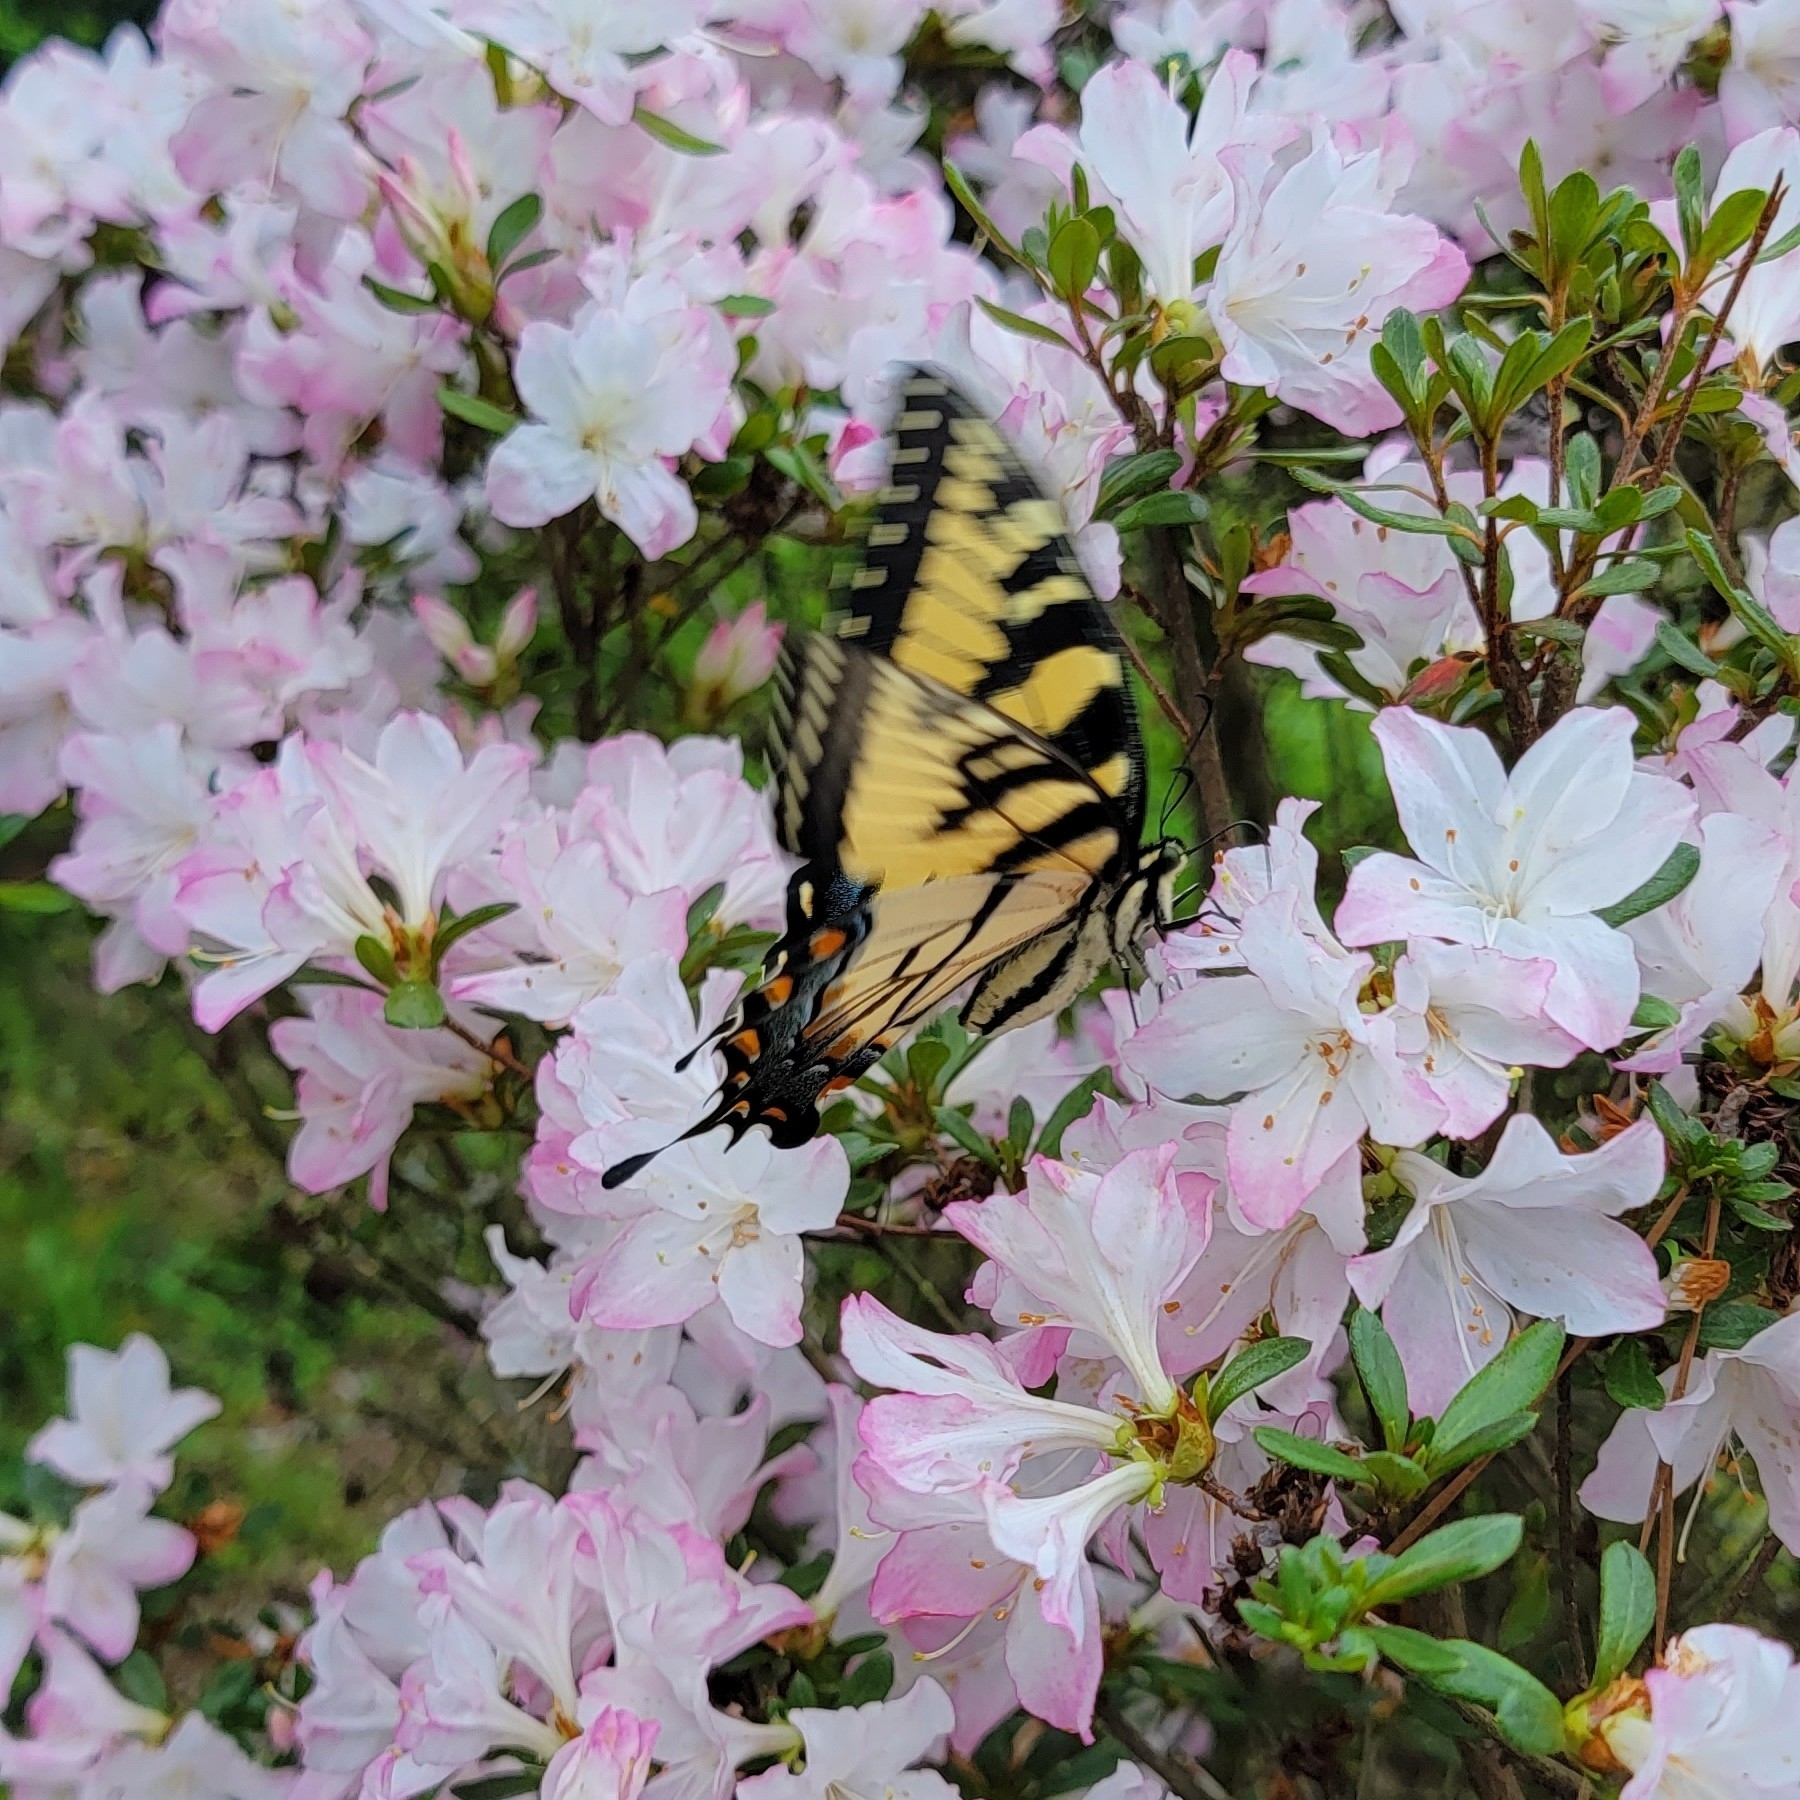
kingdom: Animalia
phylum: Arthropoda
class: Insecta
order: Lepidoptera
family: Papilionidae
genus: Papilio
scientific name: Papilio glaucus
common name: Tiger swallowtail
